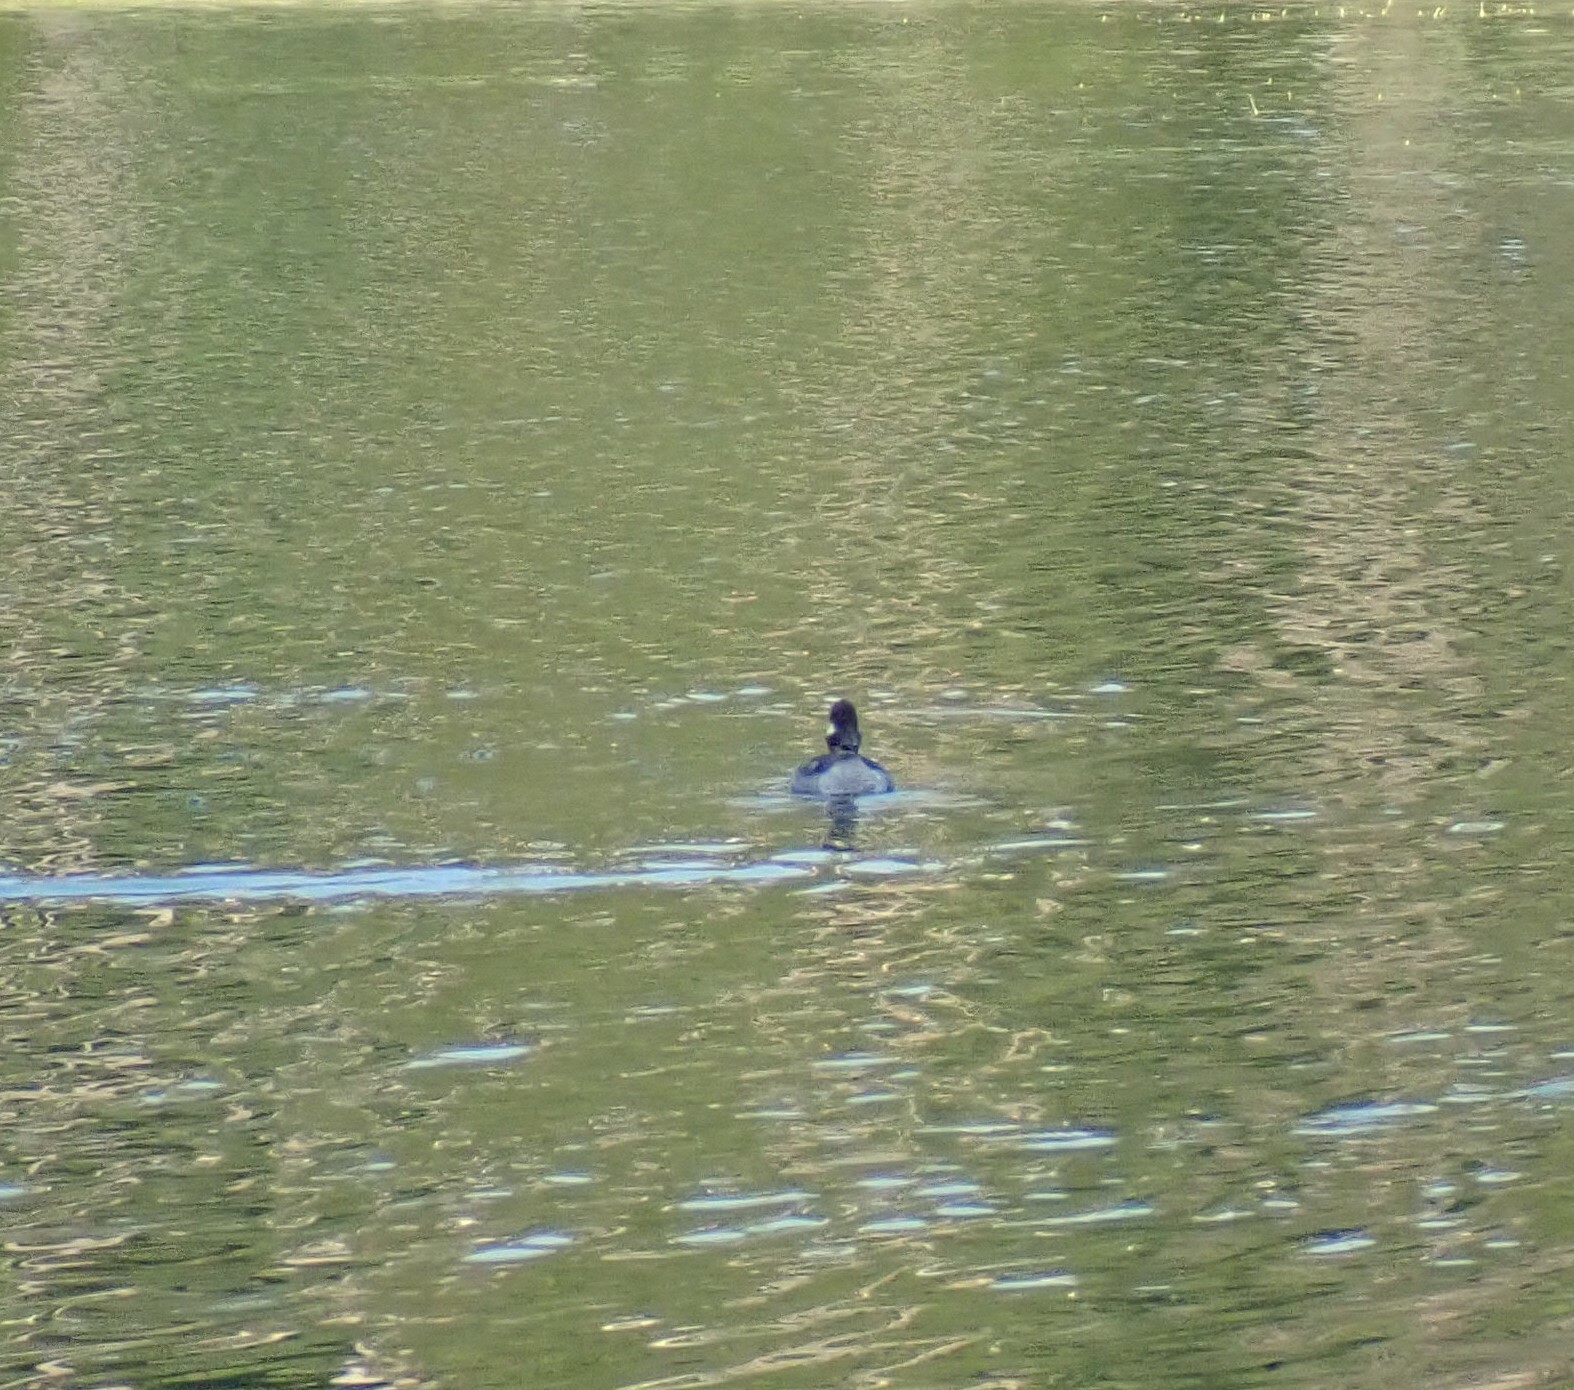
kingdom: Animalia
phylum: Chordata
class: Aves
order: Anseriformes
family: Anatidae
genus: Bucephala
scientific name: Bucephala albeola
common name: Bufflehead
